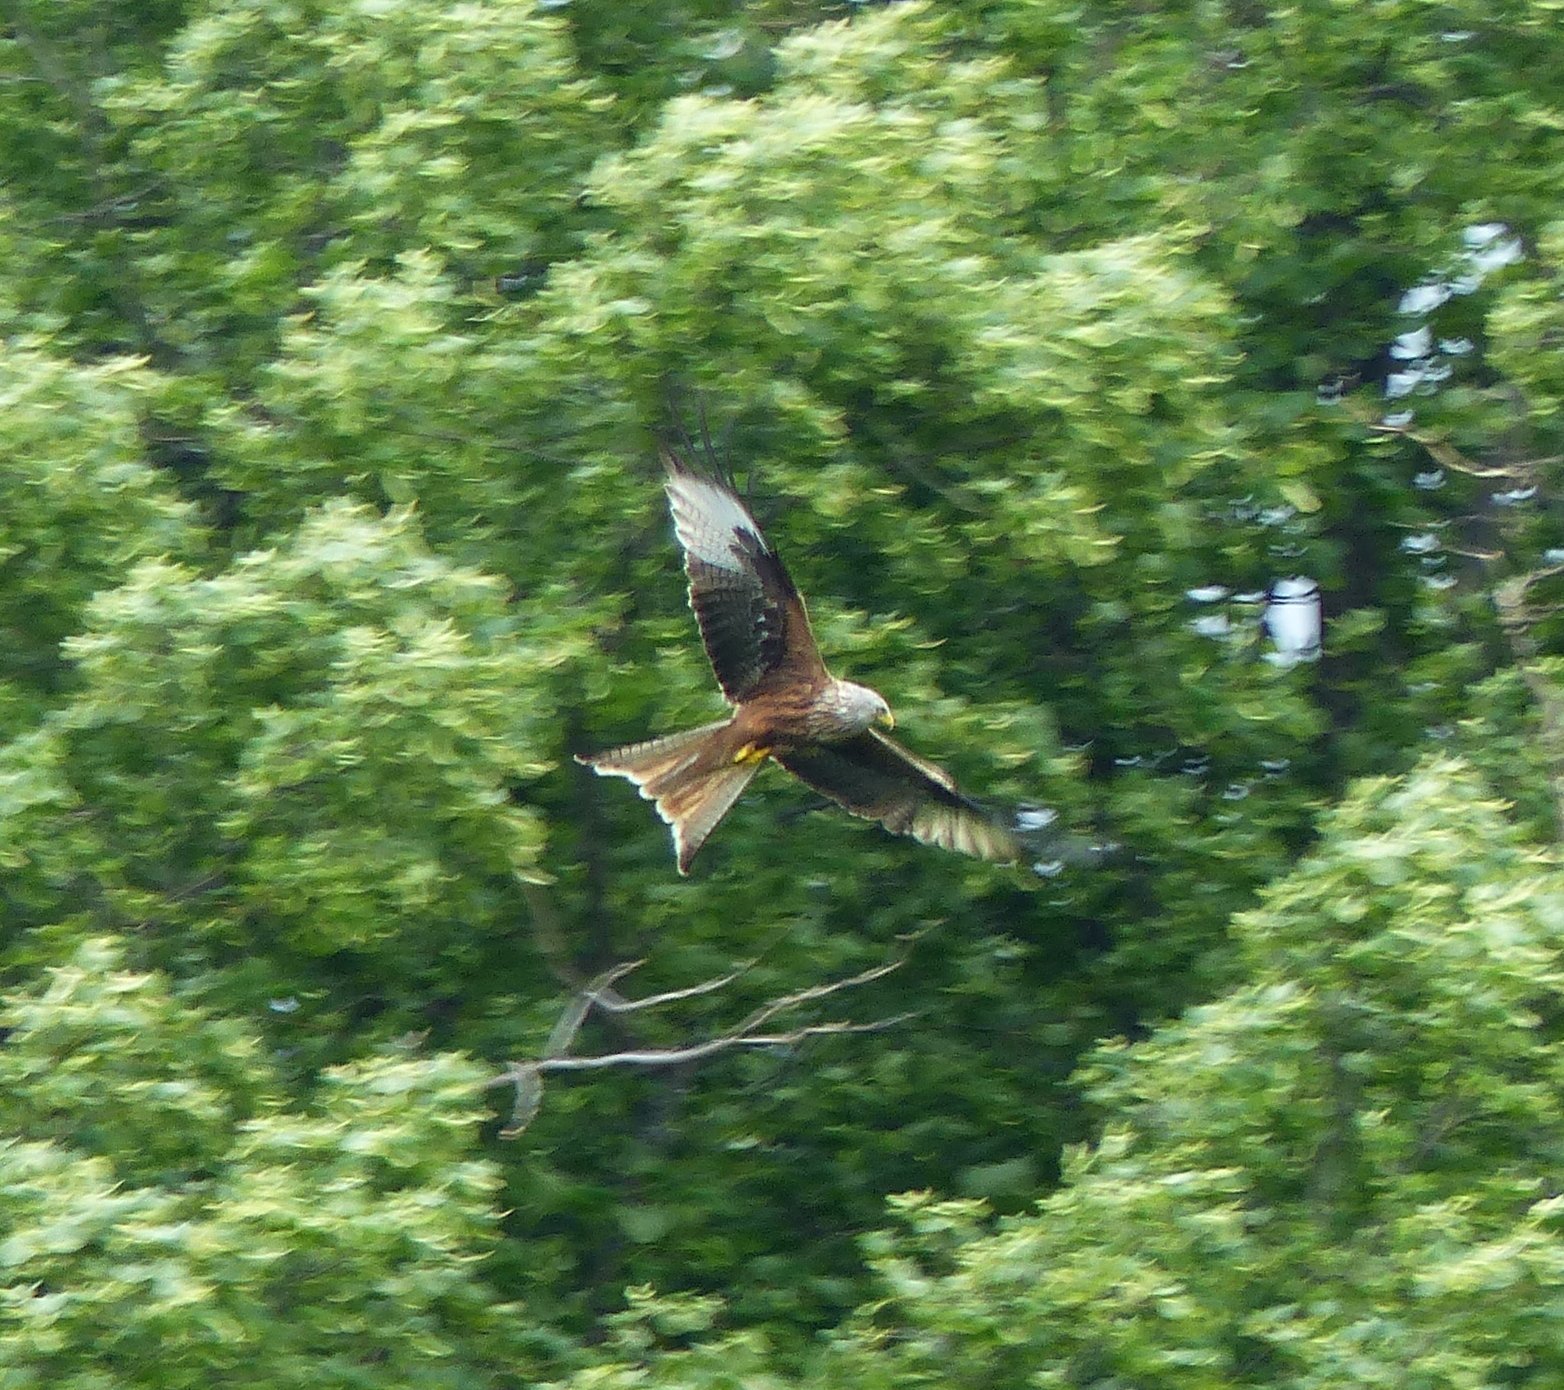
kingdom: Animalia
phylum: Chordata
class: Aves
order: Accipitriformes
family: Accipitridae
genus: Milvus
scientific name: Milvus milvus
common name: Red kite
